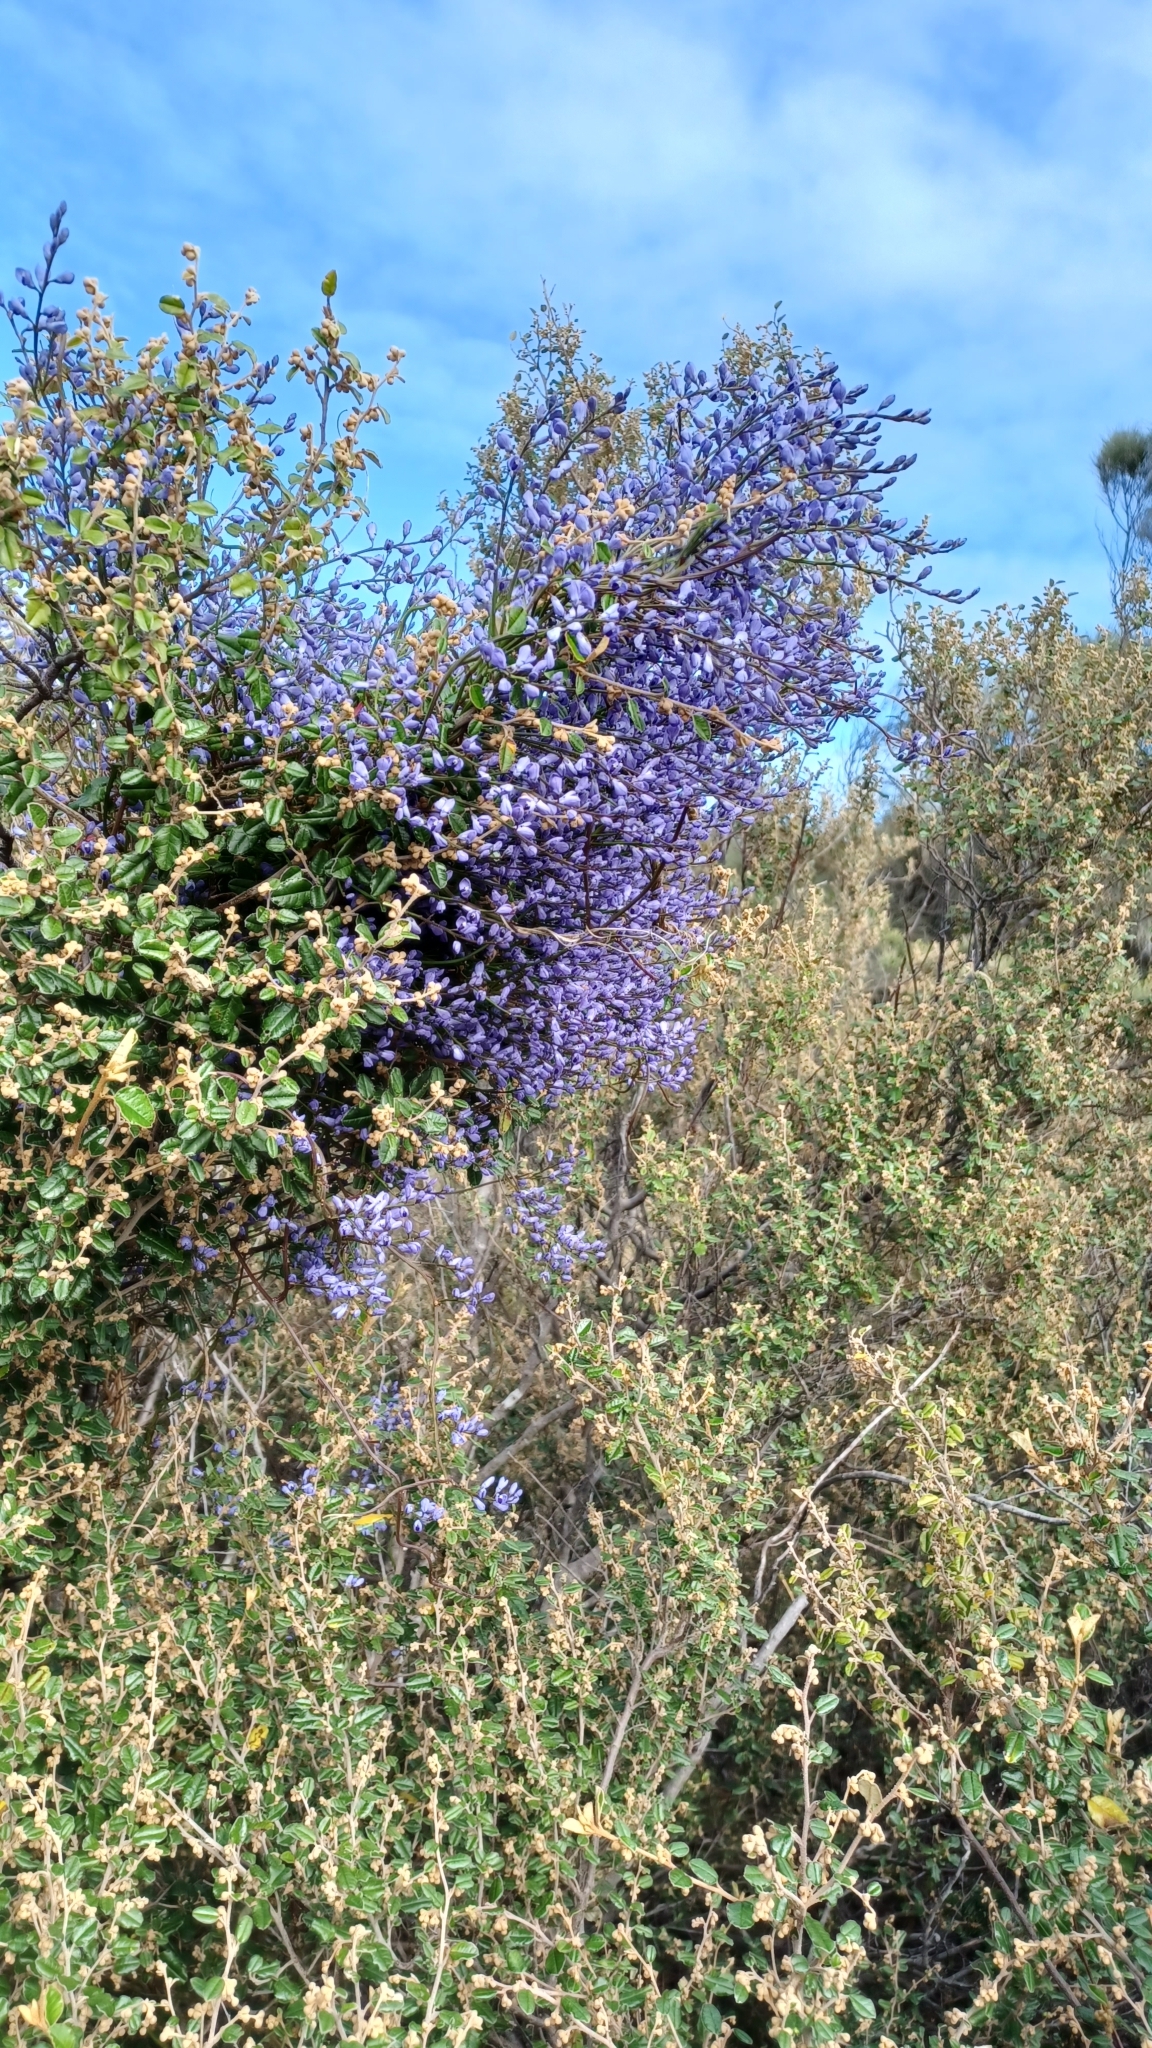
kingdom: Plantae
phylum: Tracheophyta
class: Magnoliopsida
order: Fabales
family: Polygalaceae
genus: Comesperma
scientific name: Comesperma volubile
